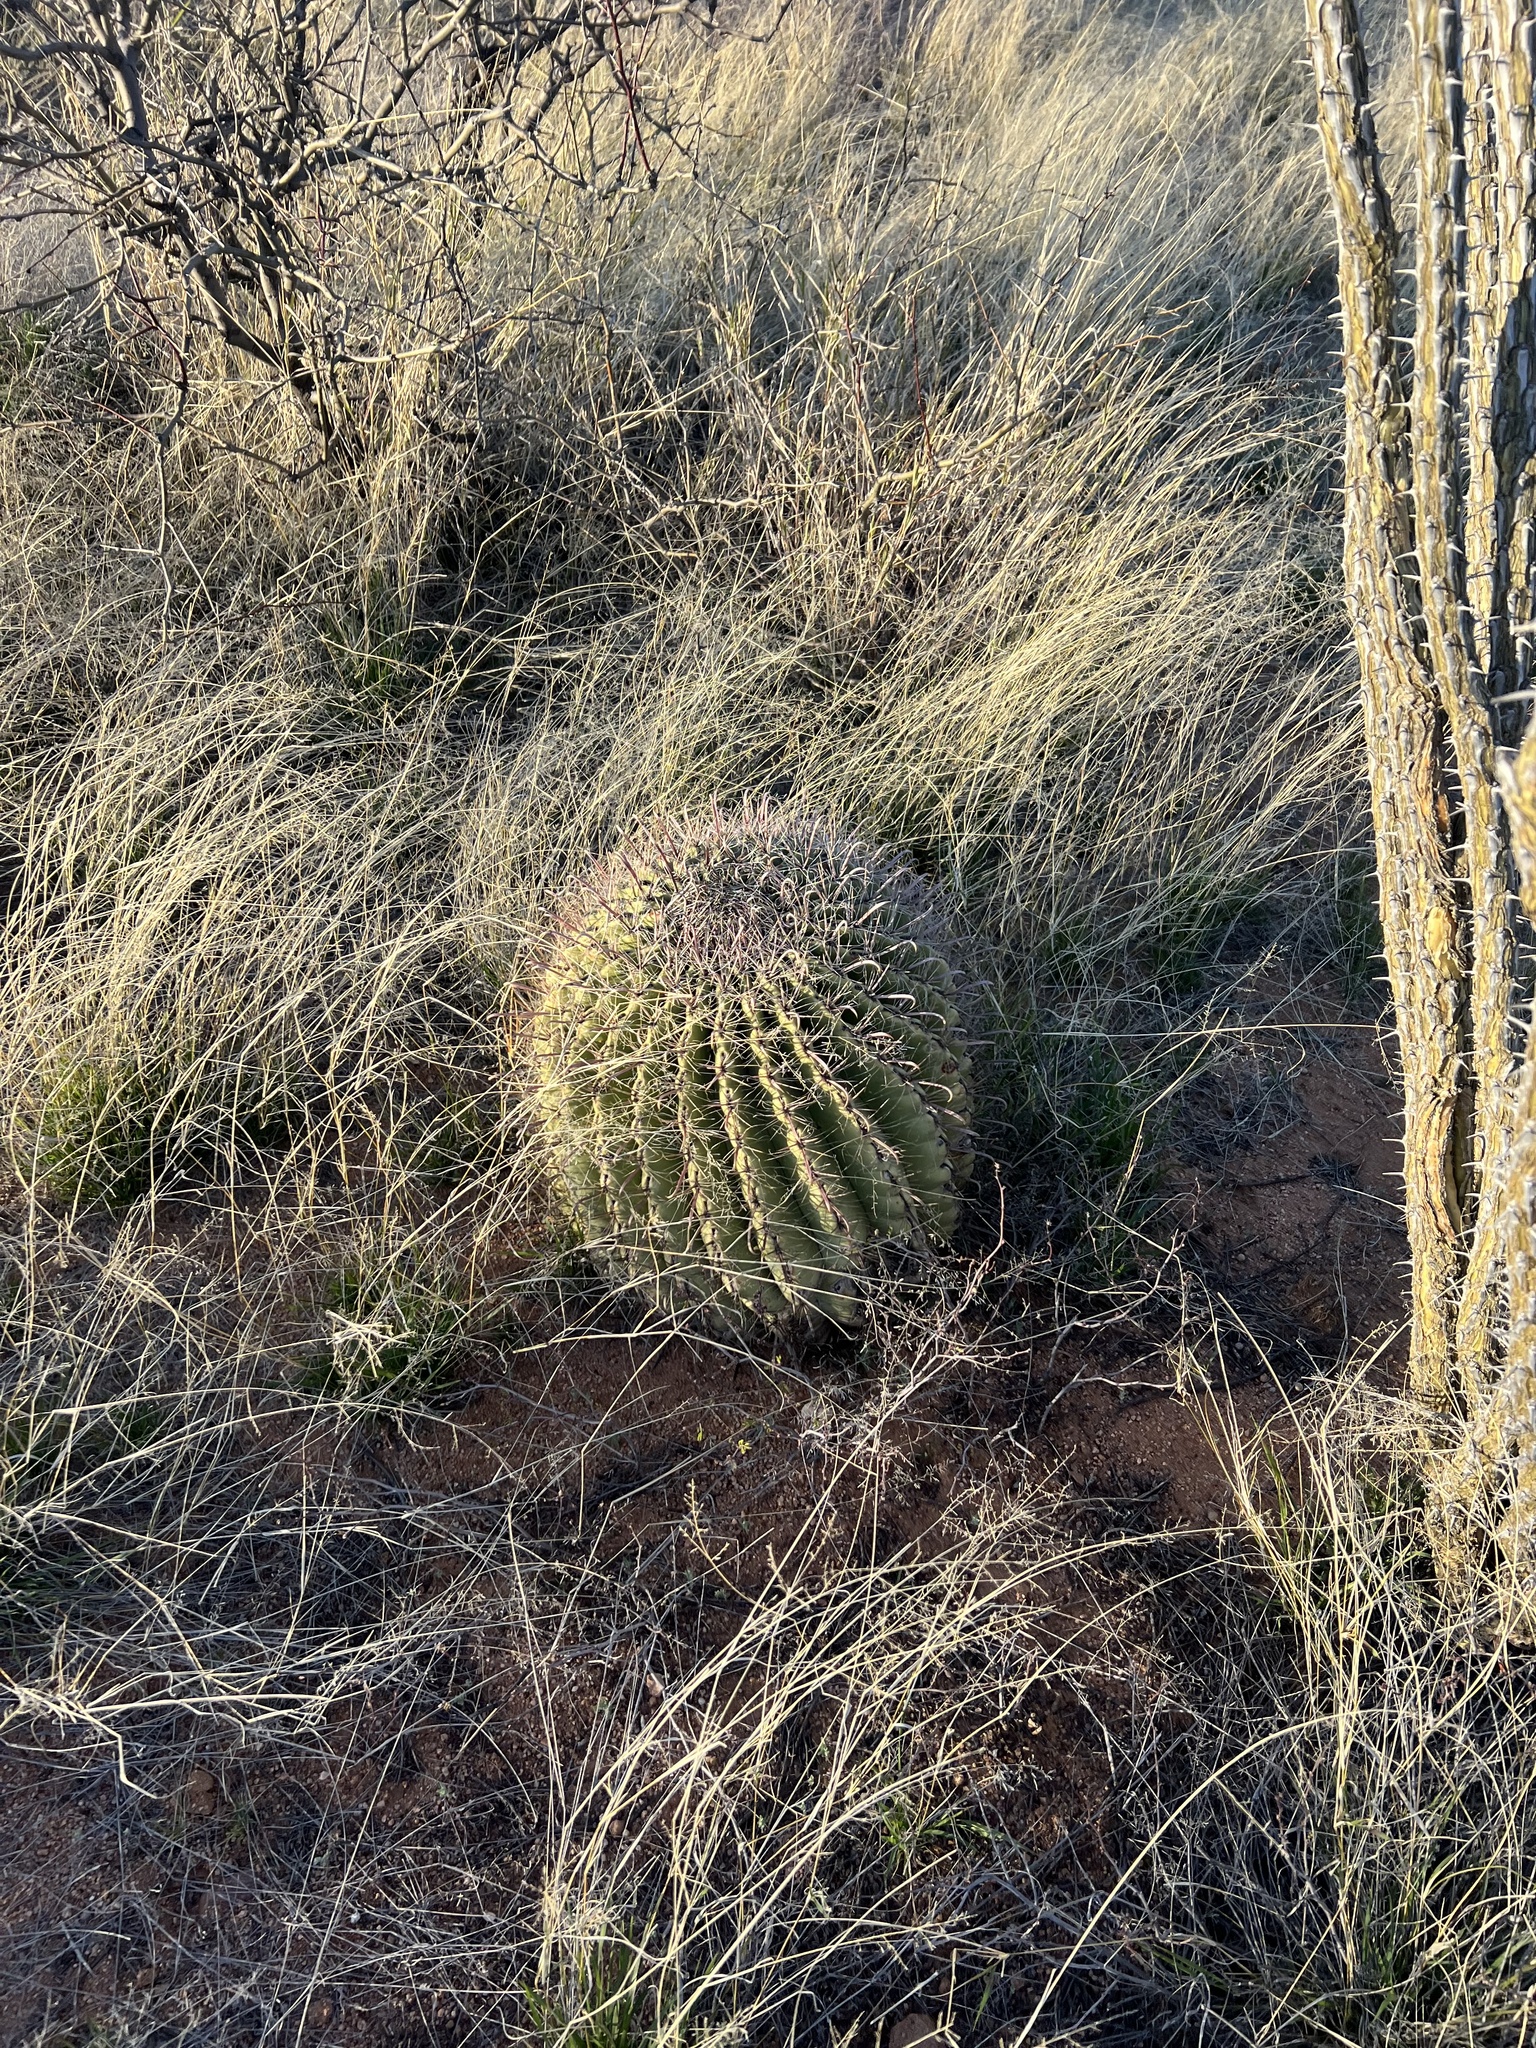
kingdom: Plantae
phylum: Tracheophyta
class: Magnoliopsida
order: Caryophyllales
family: Cactaceae
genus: Ferocactus
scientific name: Ferocactus wislizeni
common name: Candy barrel cactus
